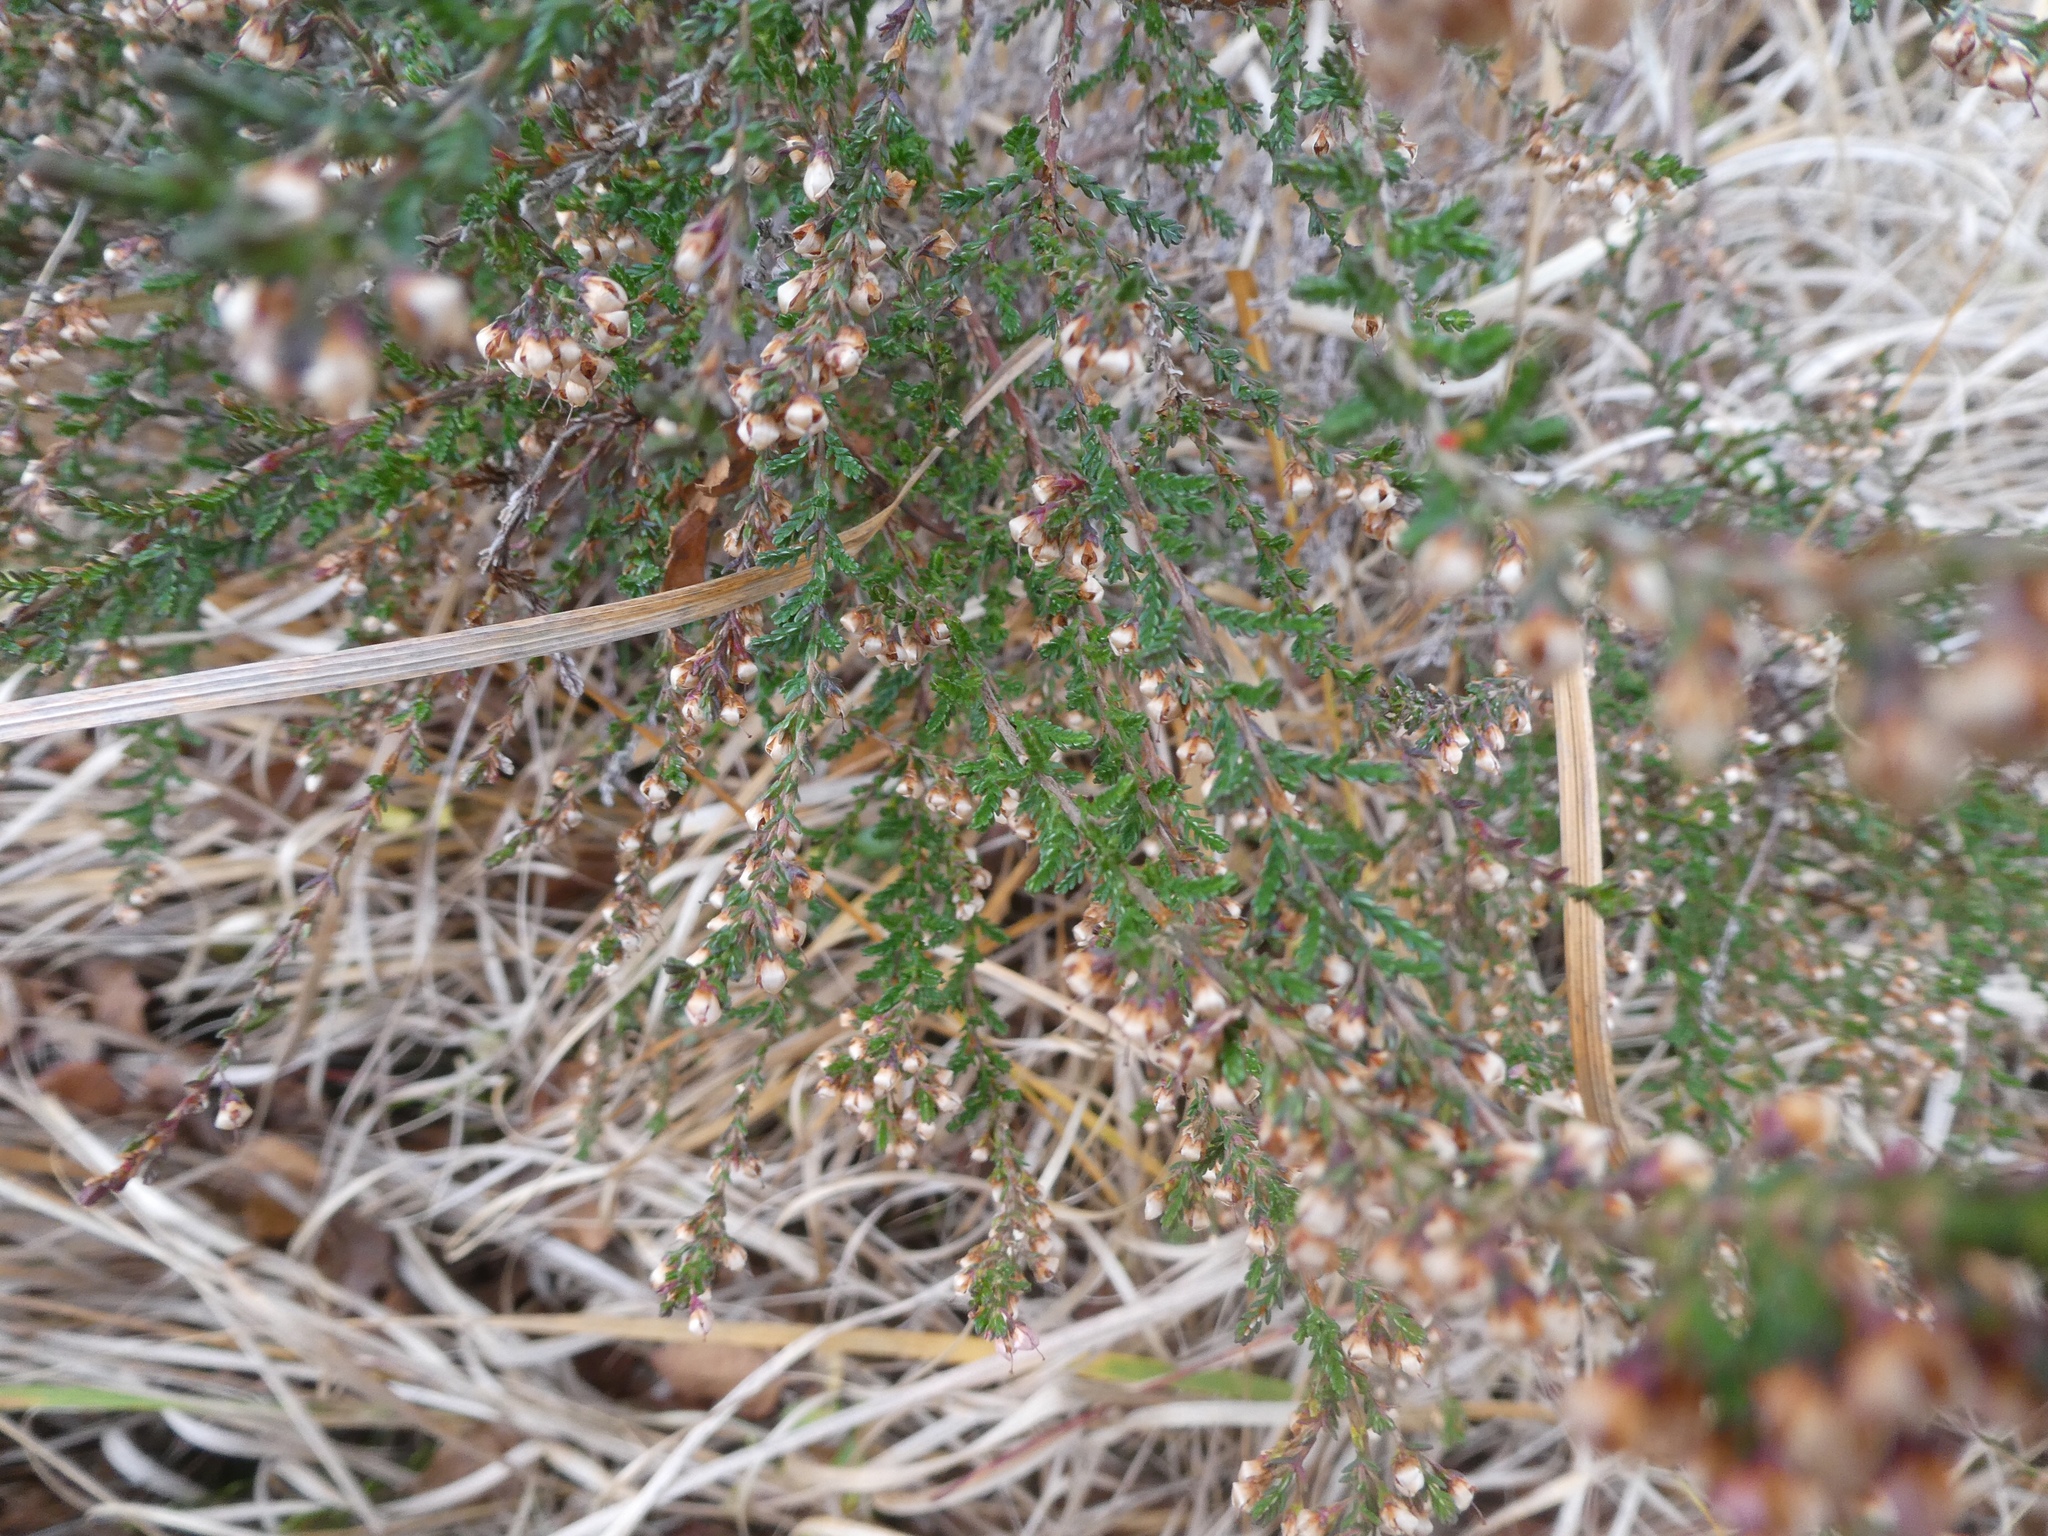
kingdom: Plantae
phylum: Tracheophyta
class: Magnoliopsida
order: Ericales
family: Ericaceae
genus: Calluna
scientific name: Calluna vulgaris
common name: Heather
